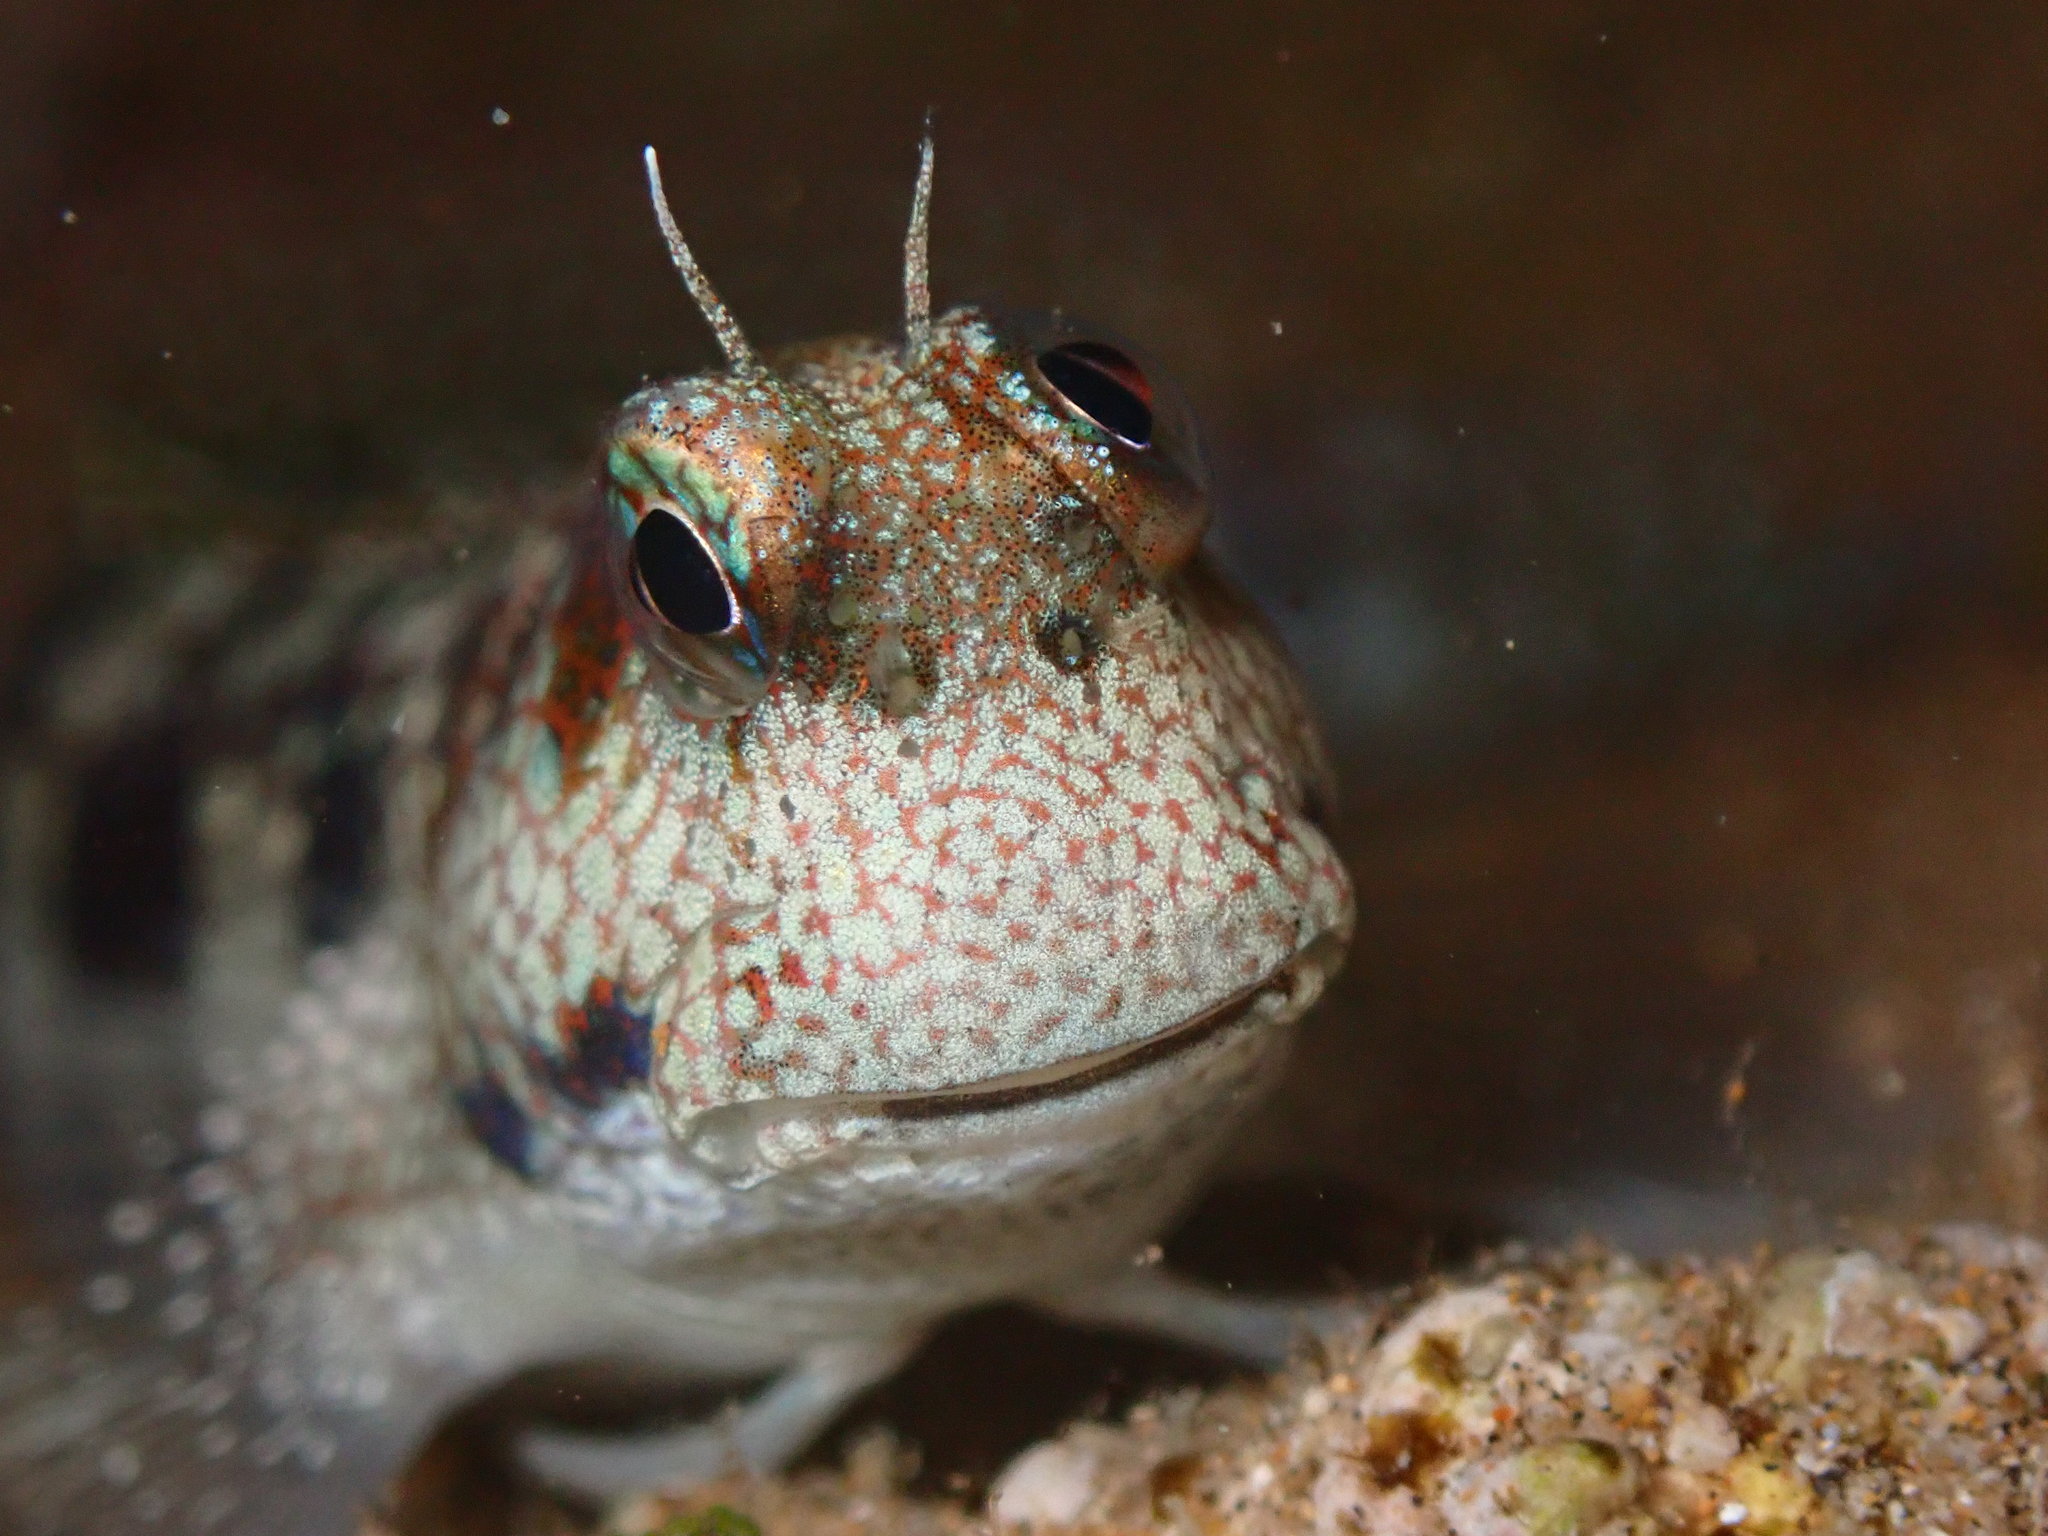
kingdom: Animalia
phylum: Chordata
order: Perciformes
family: Blenniidae
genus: Blenniella
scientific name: Blenniella gibbifrons
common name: Picture rockskipper
